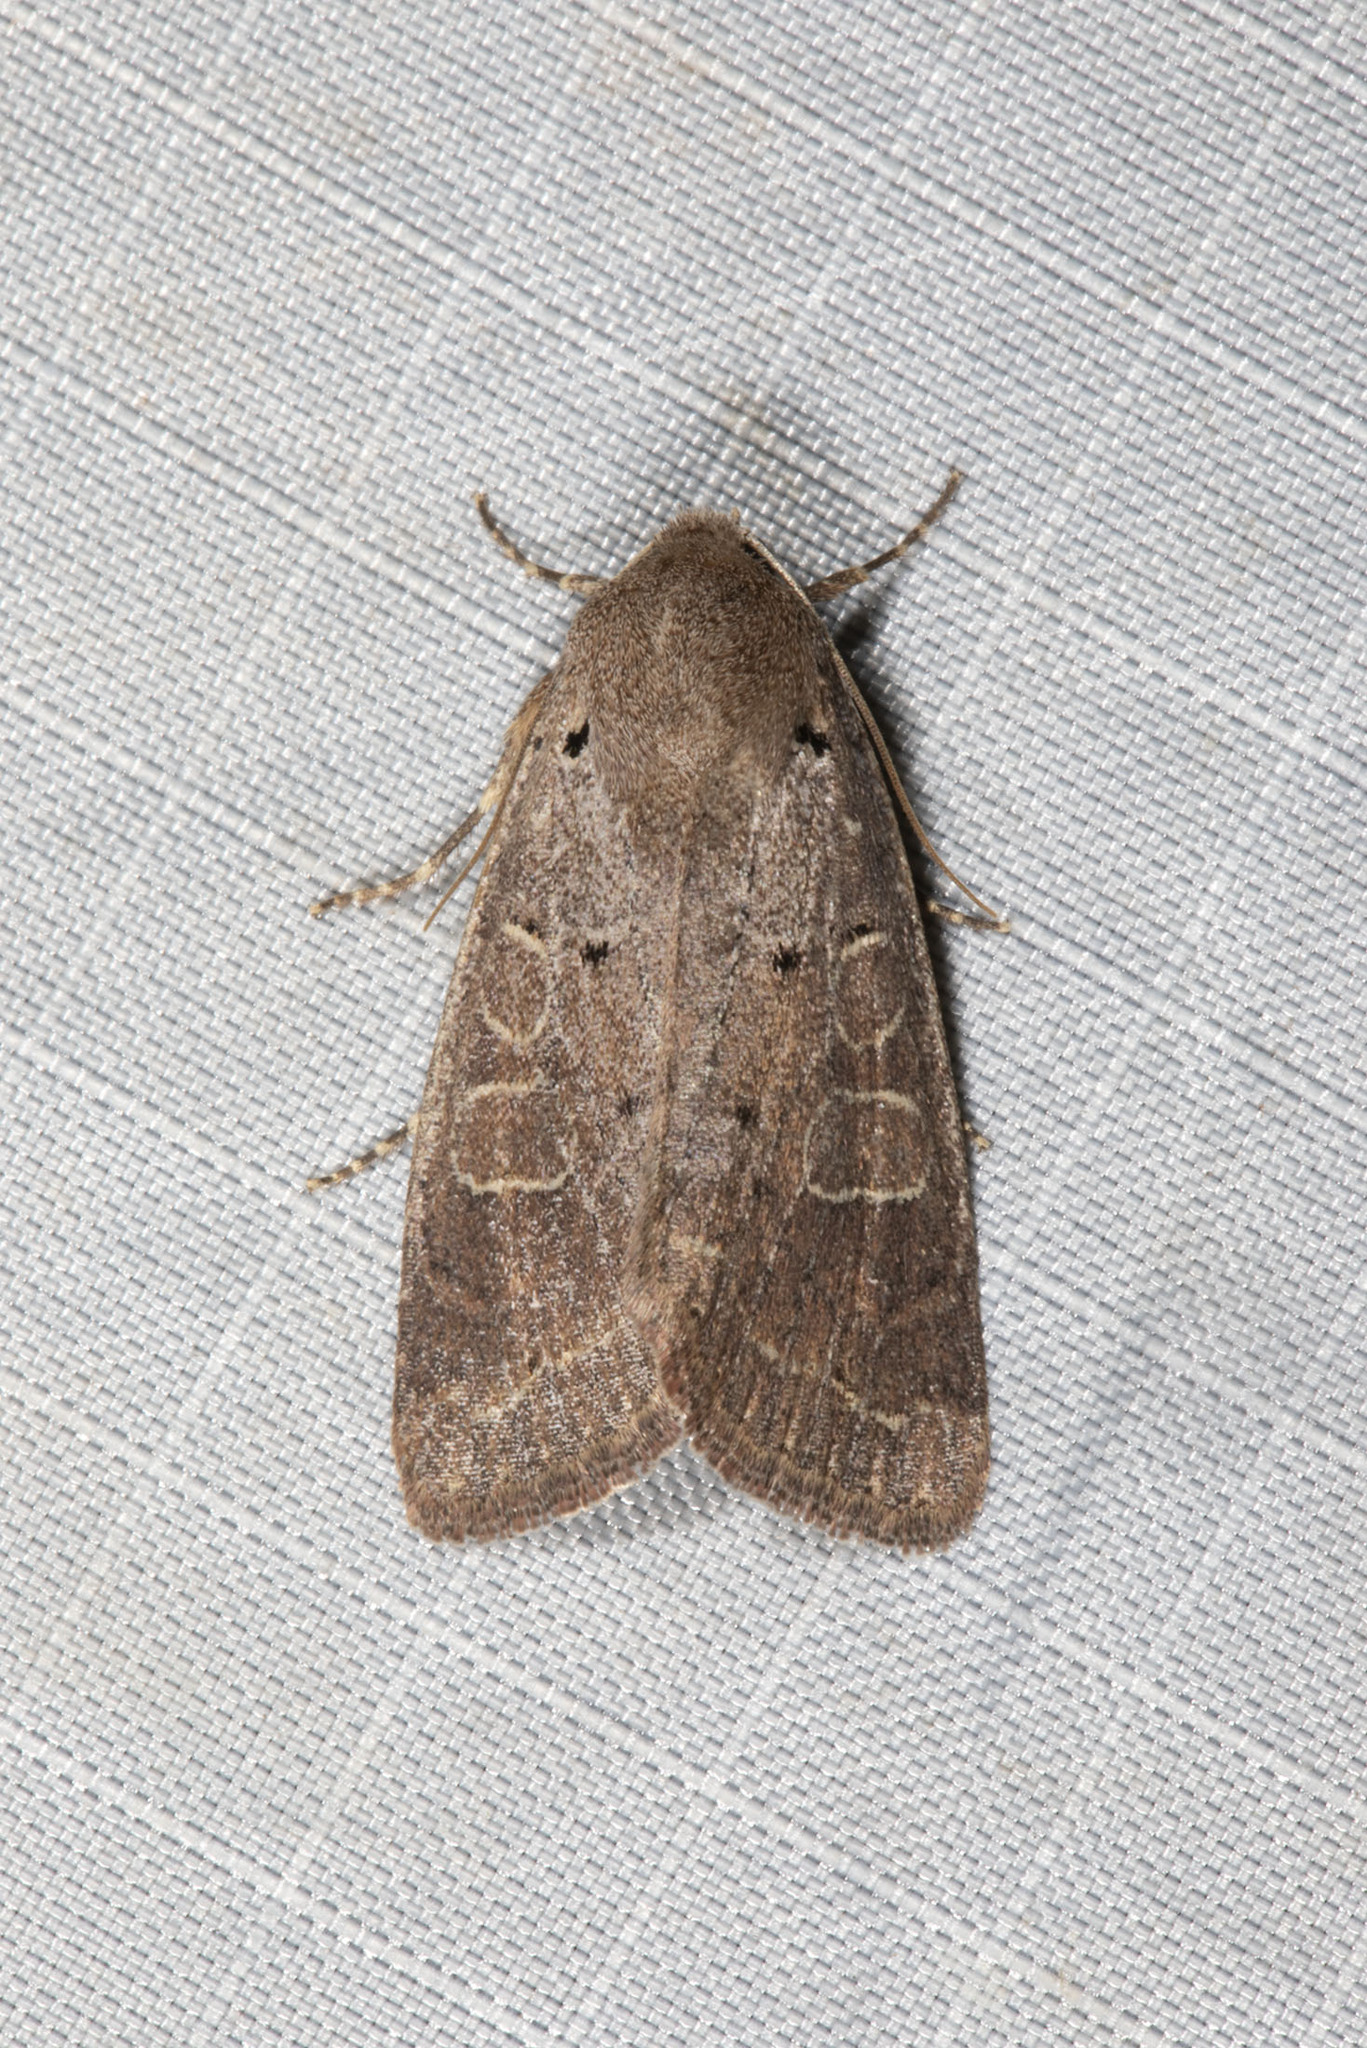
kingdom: Animalia
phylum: Arthropoda
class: Insecta
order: Lepidoptera
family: Noctuidae
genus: Kocakina
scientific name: Kocakina fidelis
